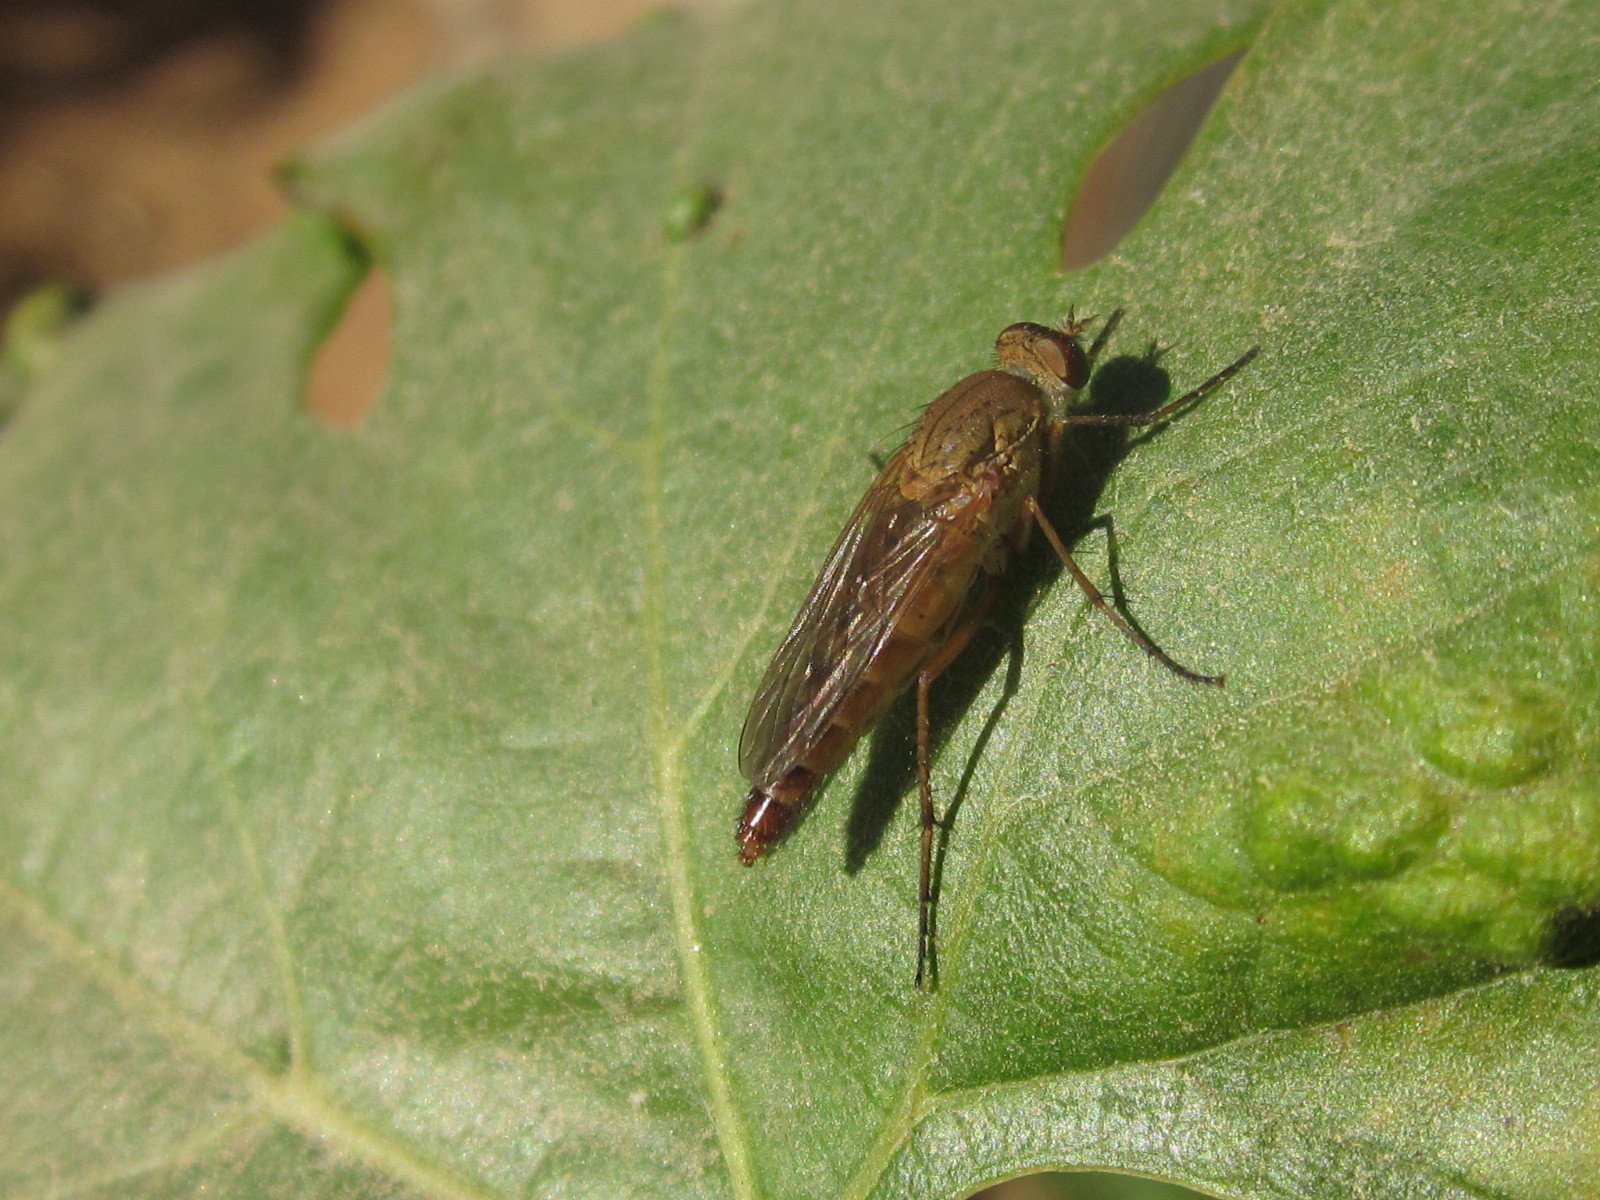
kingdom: Animalia
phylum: Arthropoda
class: Insecta
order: Diptera
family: Therevidae
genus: Entesia
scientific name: Entesia rubida
